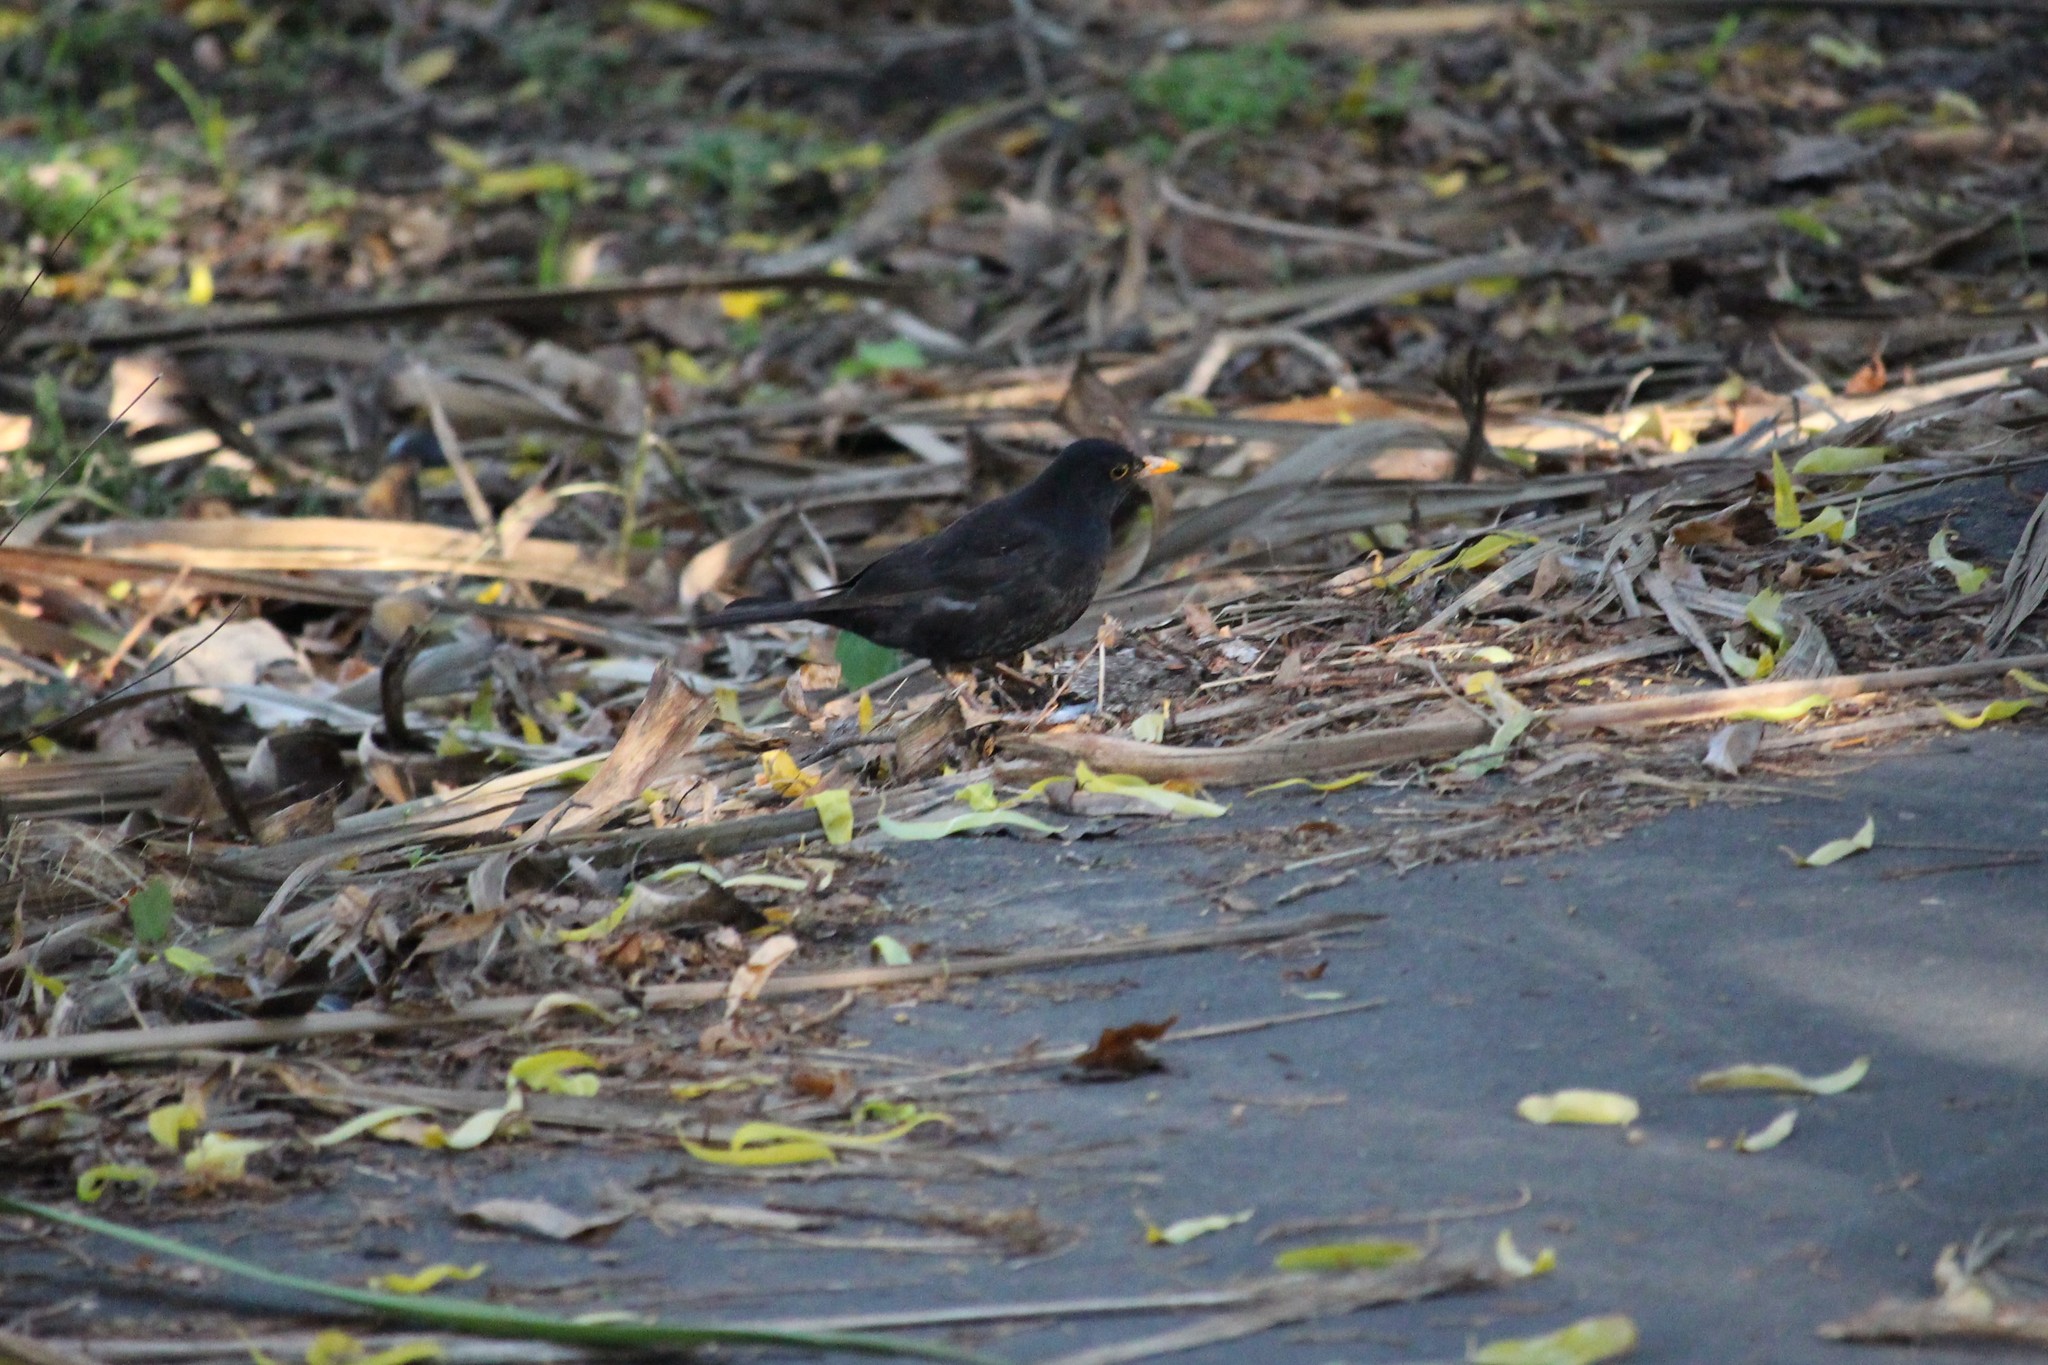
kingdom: Animalia
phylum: Chordata
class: Aves
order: Passeriformes
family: Turdidae
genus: Turdus
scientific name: Turdus merula
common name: Common blackbird
